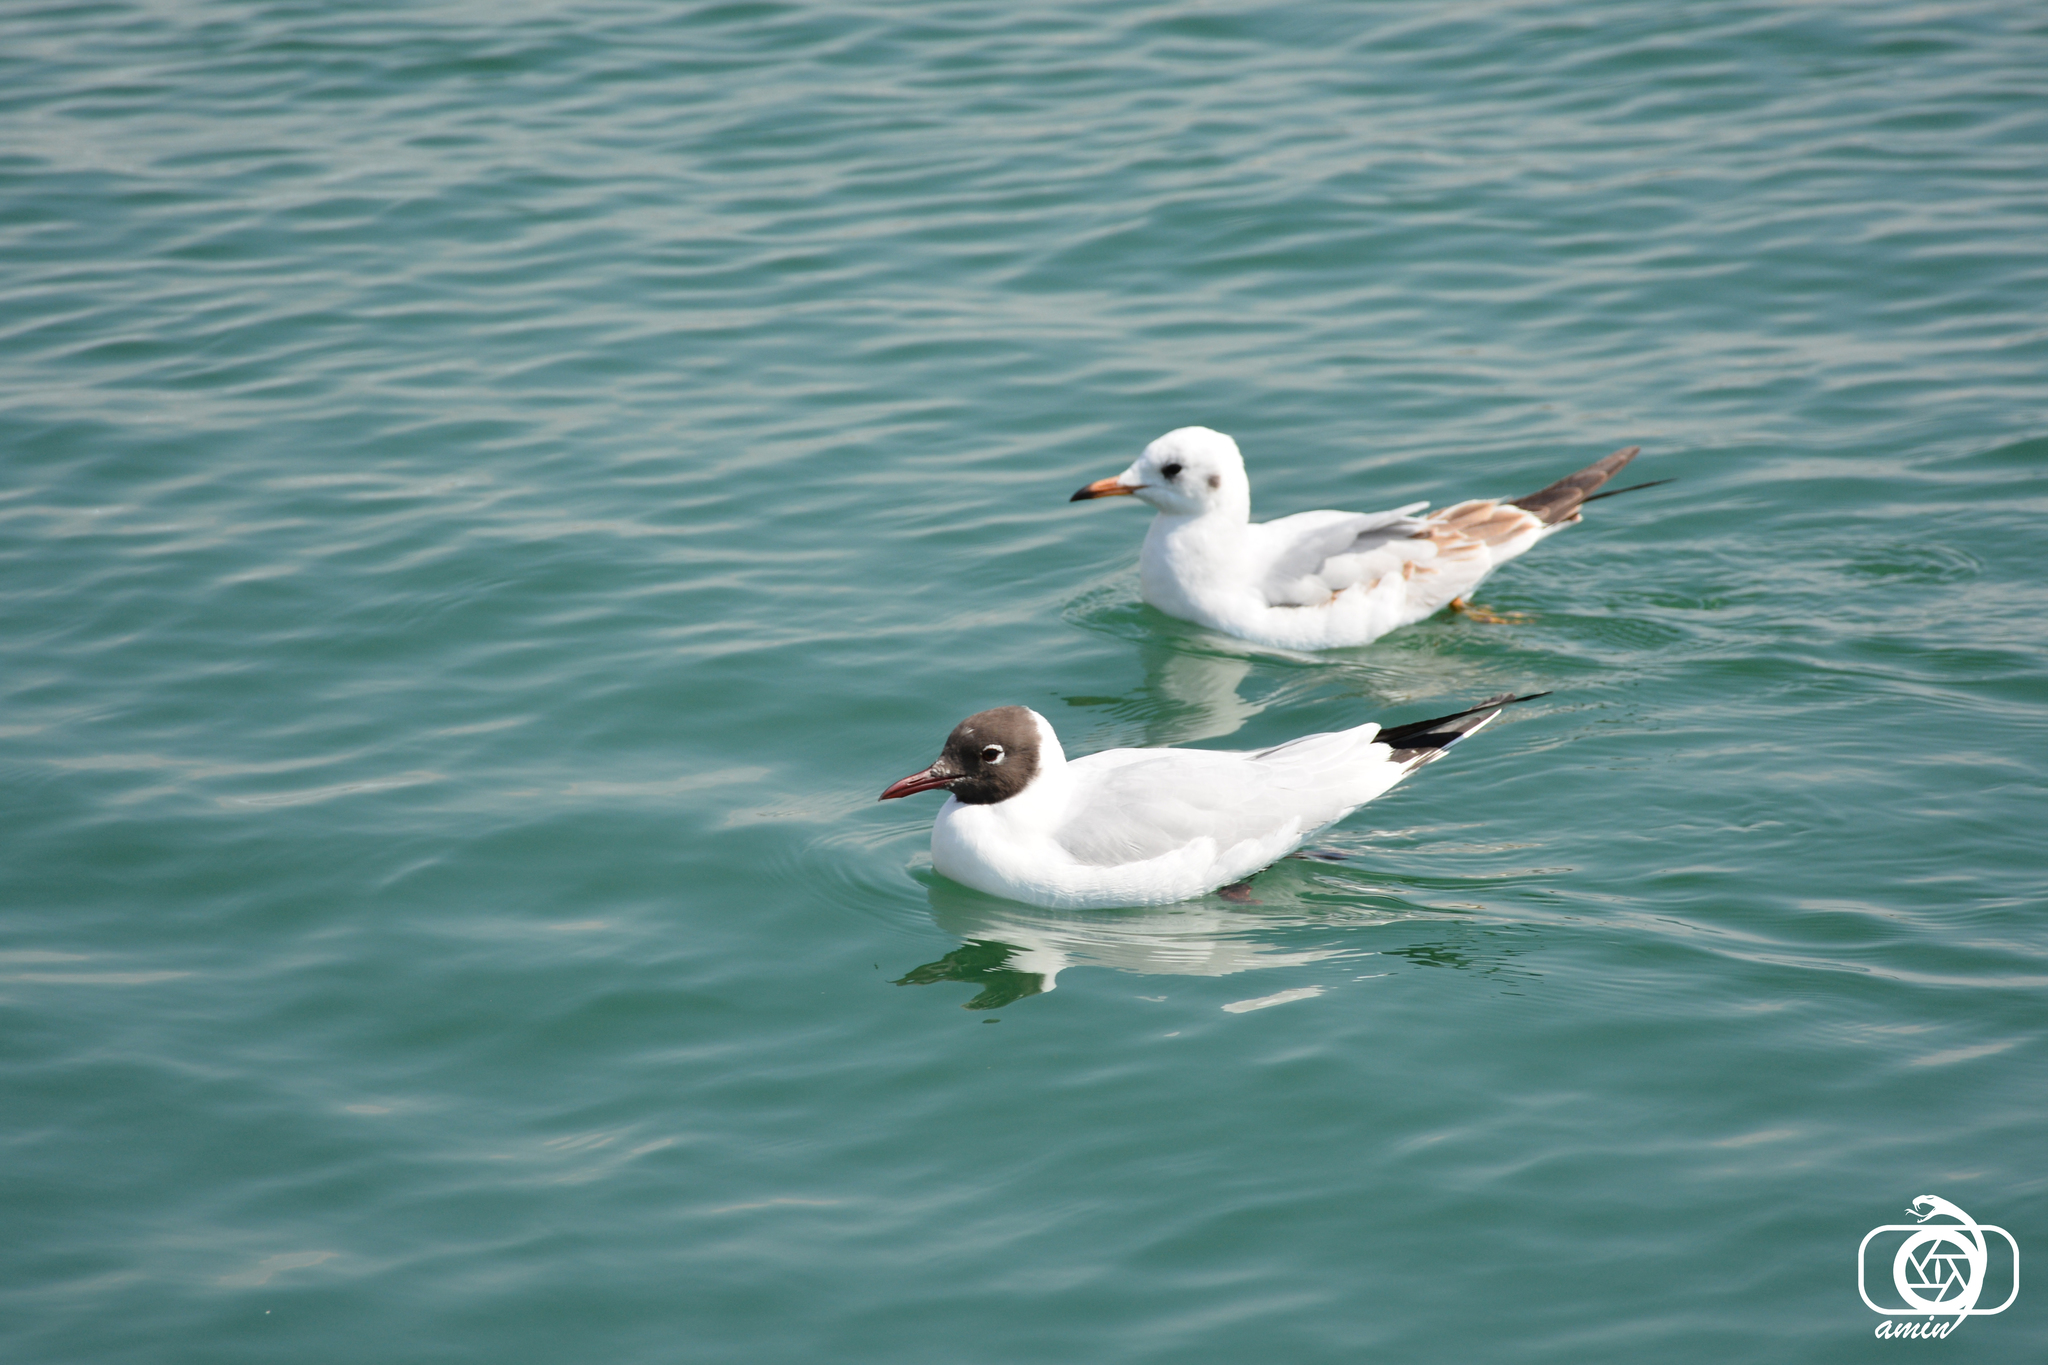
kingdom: Animalia
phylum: Chordata
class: Aves
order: Charadriiformes
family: Laridae
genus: Chroicocephalus
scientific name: Chroicocephalus ridibundus
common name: Black-headed gull
